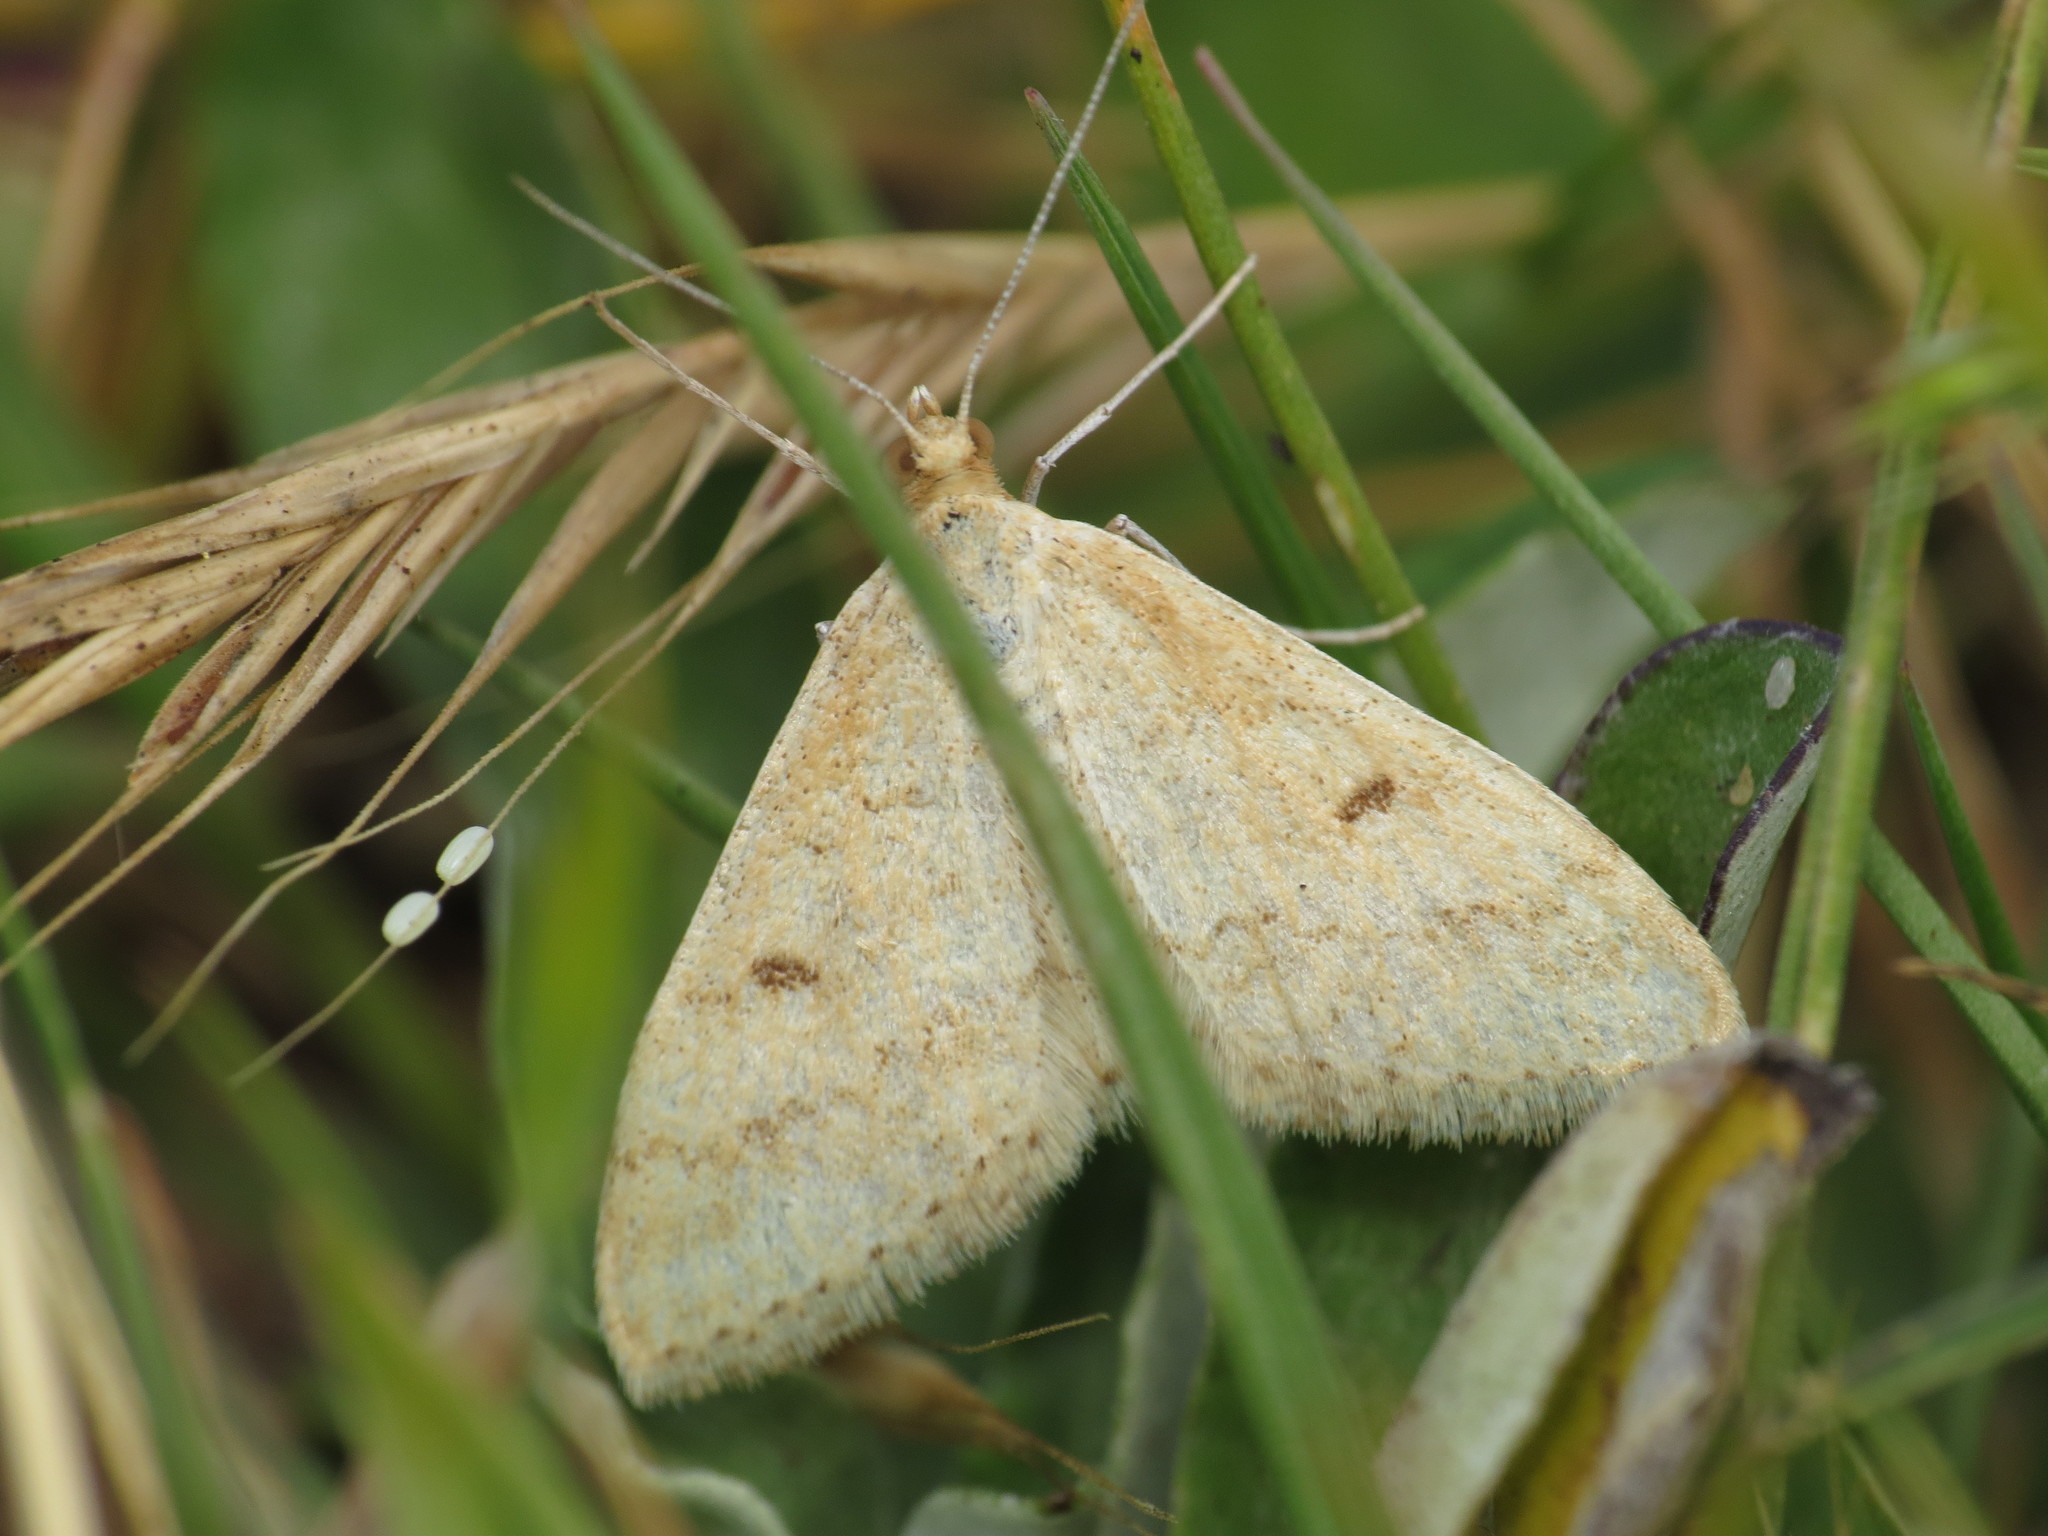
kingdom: Animalia
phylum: Arthropoda
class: Insecta
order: Lepidoptera
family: Geometridae
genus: Scopula
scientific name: Scopula rubraria
